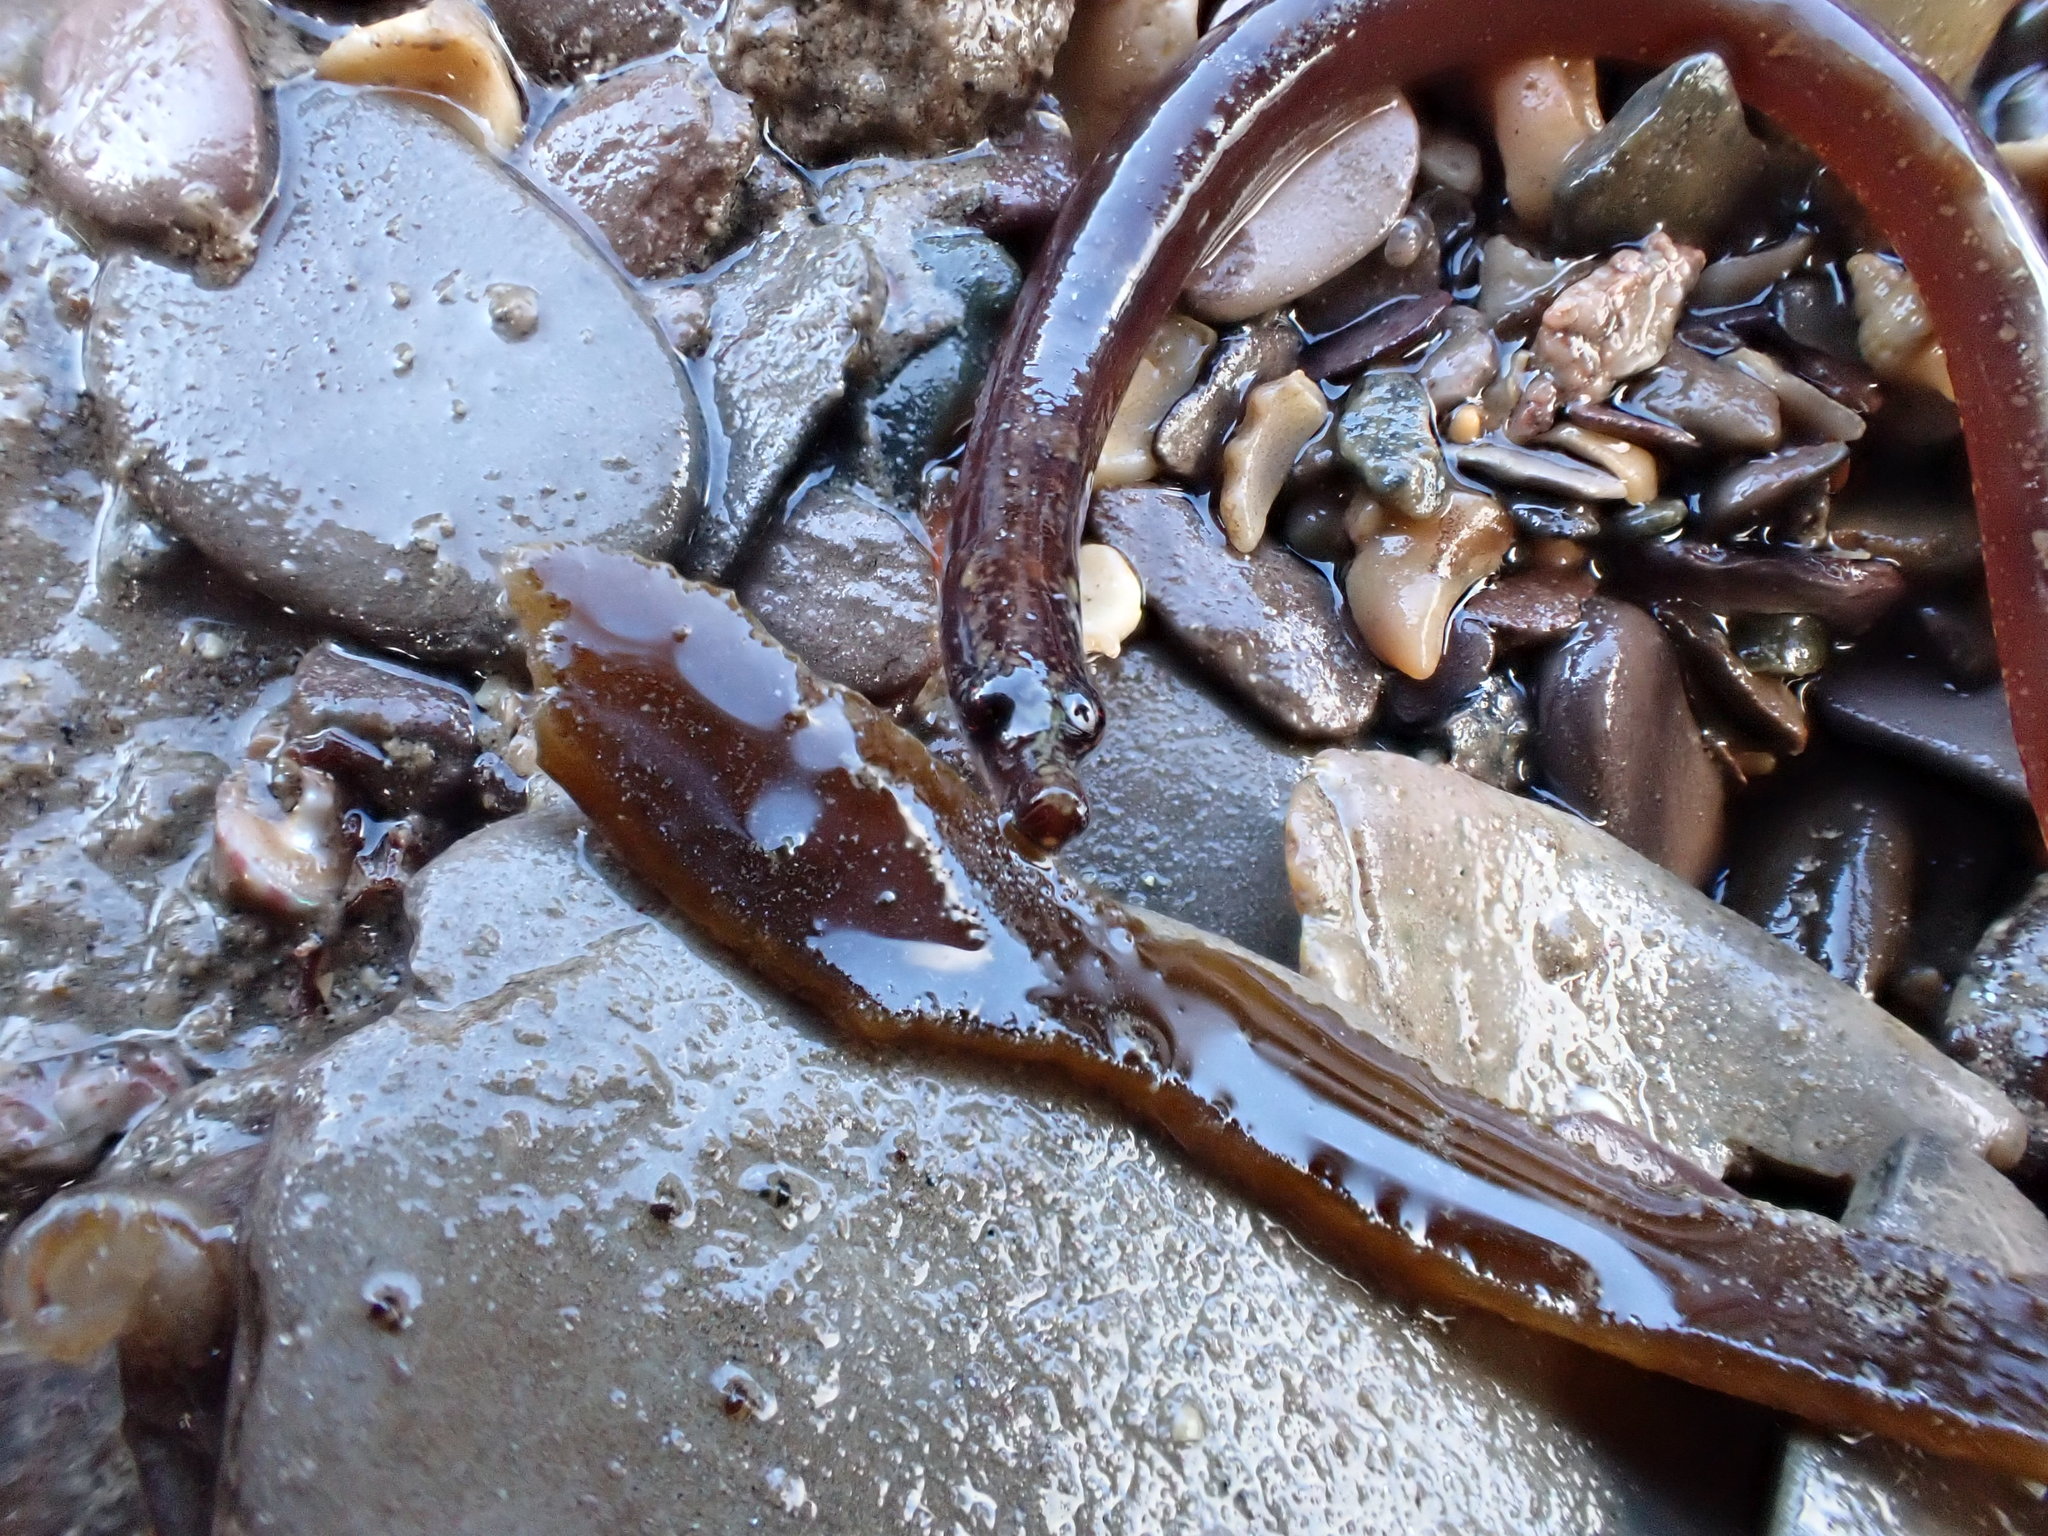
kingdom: Animalia
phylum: Chordata
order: Syngnathiformes
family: Syngnathidae
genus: Nerophis
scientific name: Nerophis lumbriciformis
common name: Worm pipefish
